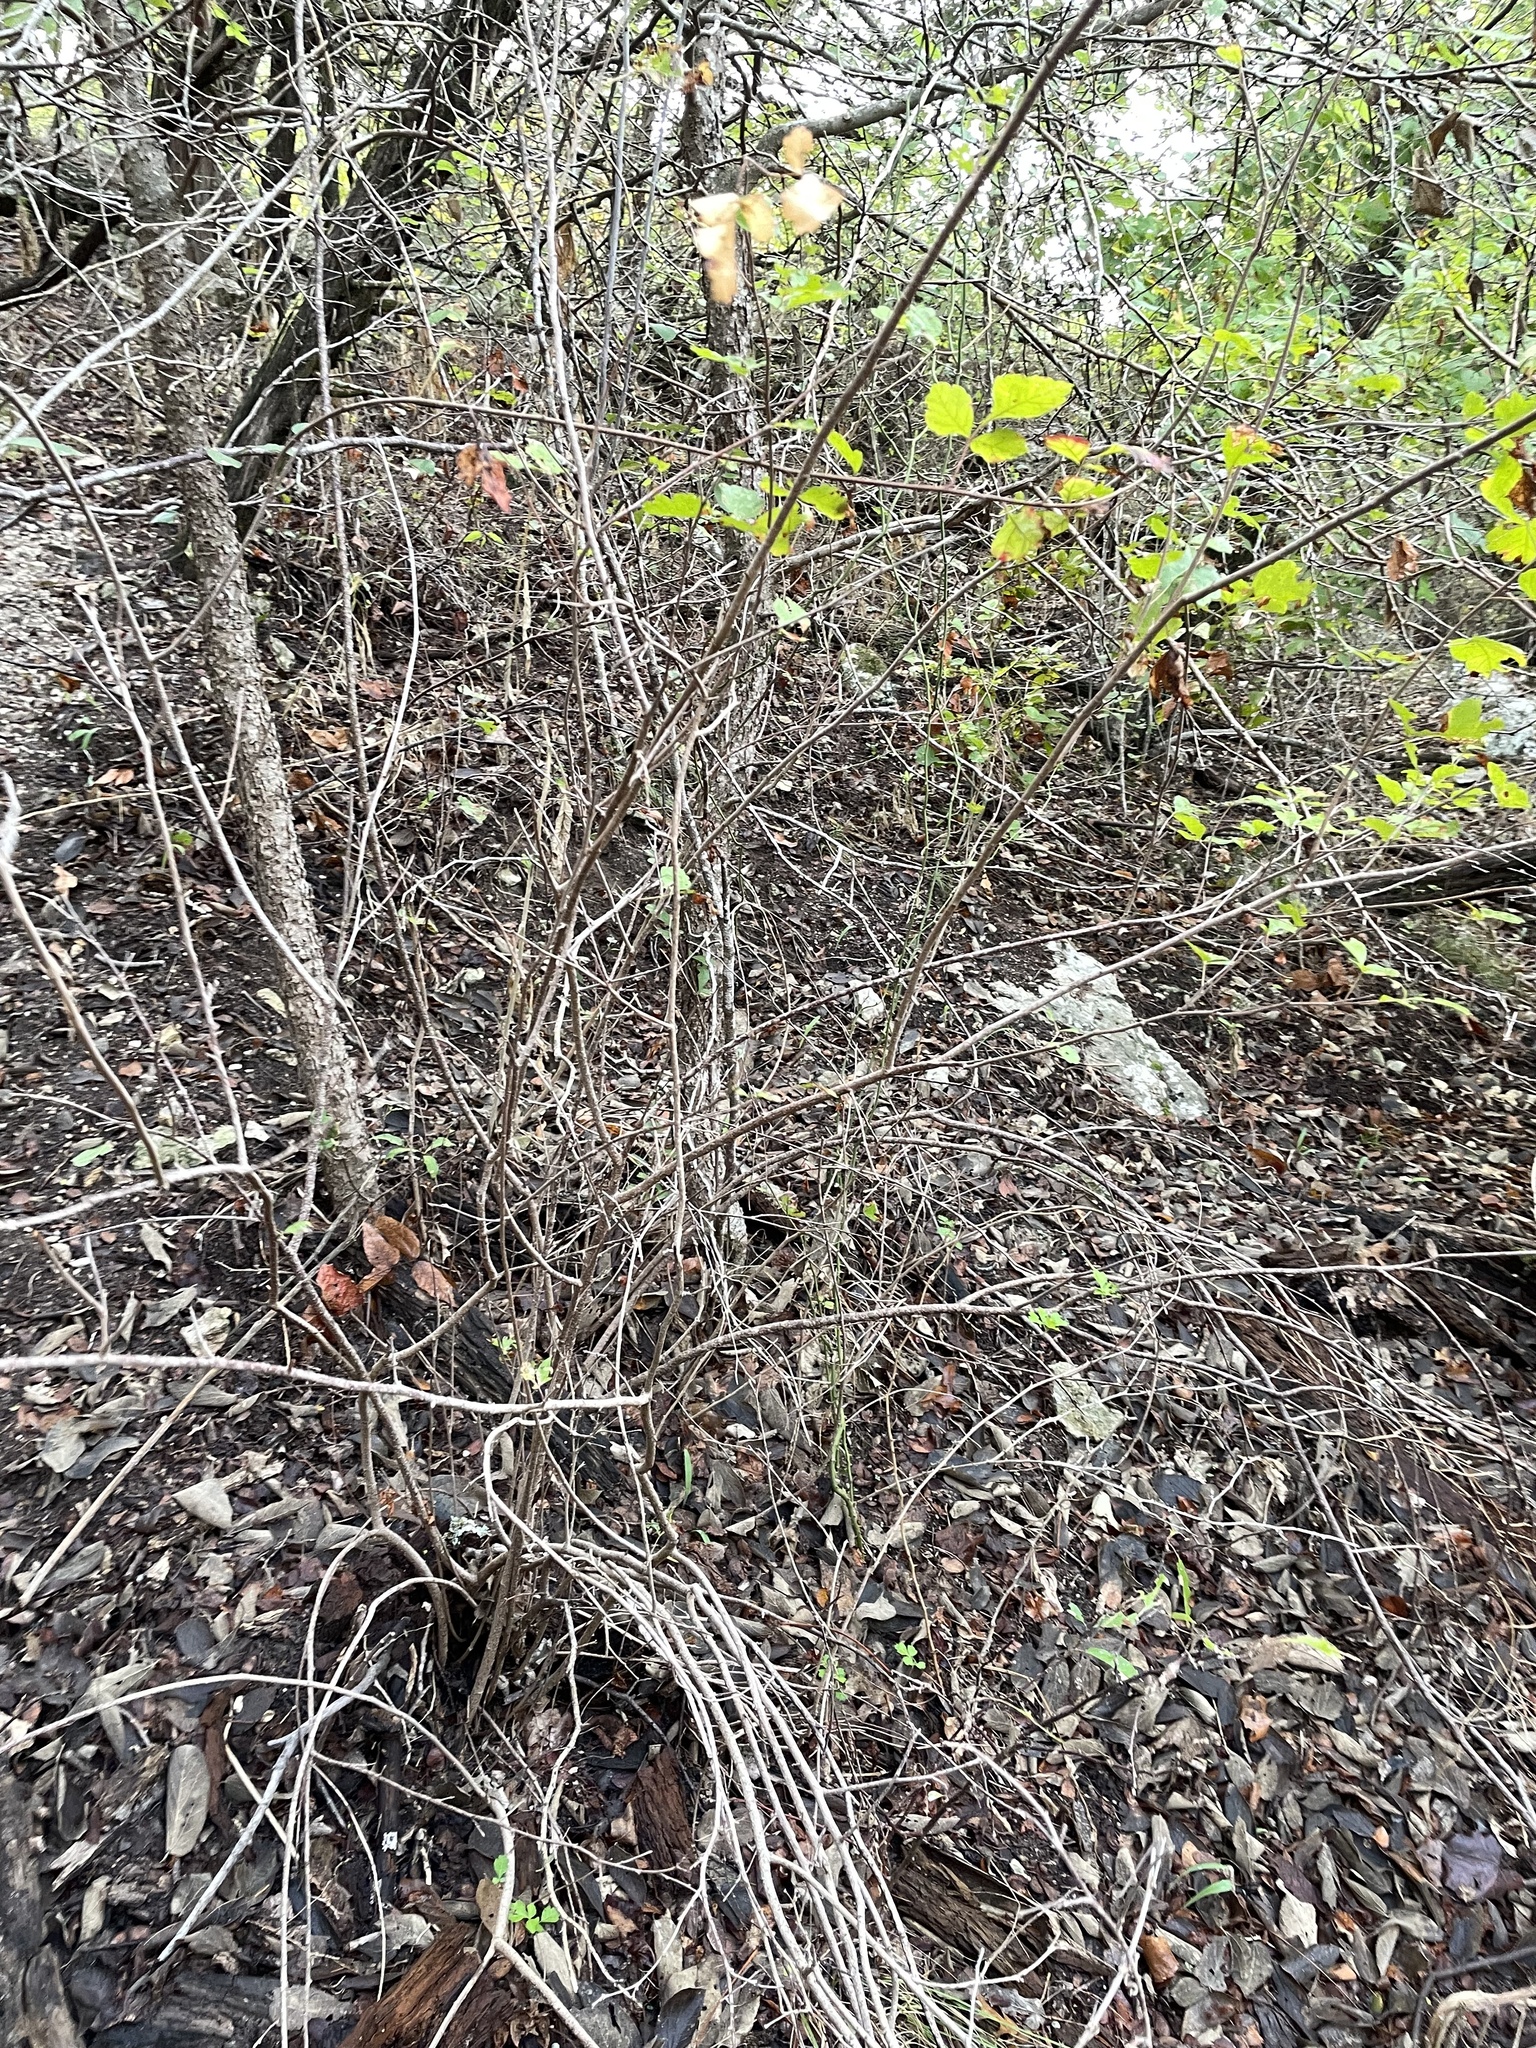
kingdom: Plantae
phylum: Tracheophyta
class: Magnoliopsida
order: Sapindales
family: Anacardiaceae
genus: Rhus
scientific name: Rhus aromatica
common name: Aromatic sumac
